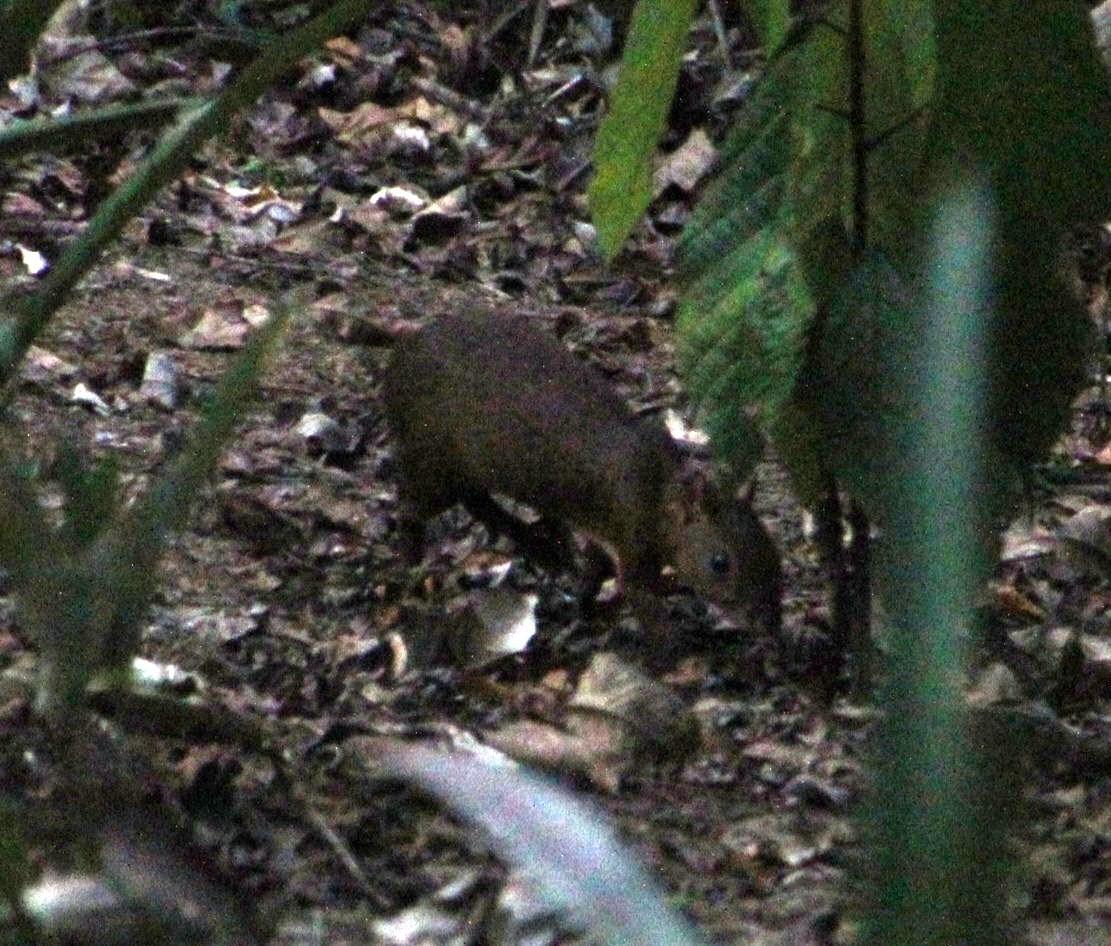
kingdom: Animalia
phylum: Chordata
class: Mammalia
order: Rodentia
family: Dasyproctidae
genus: Dasyprocta
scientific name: Dasyprocta variegata
